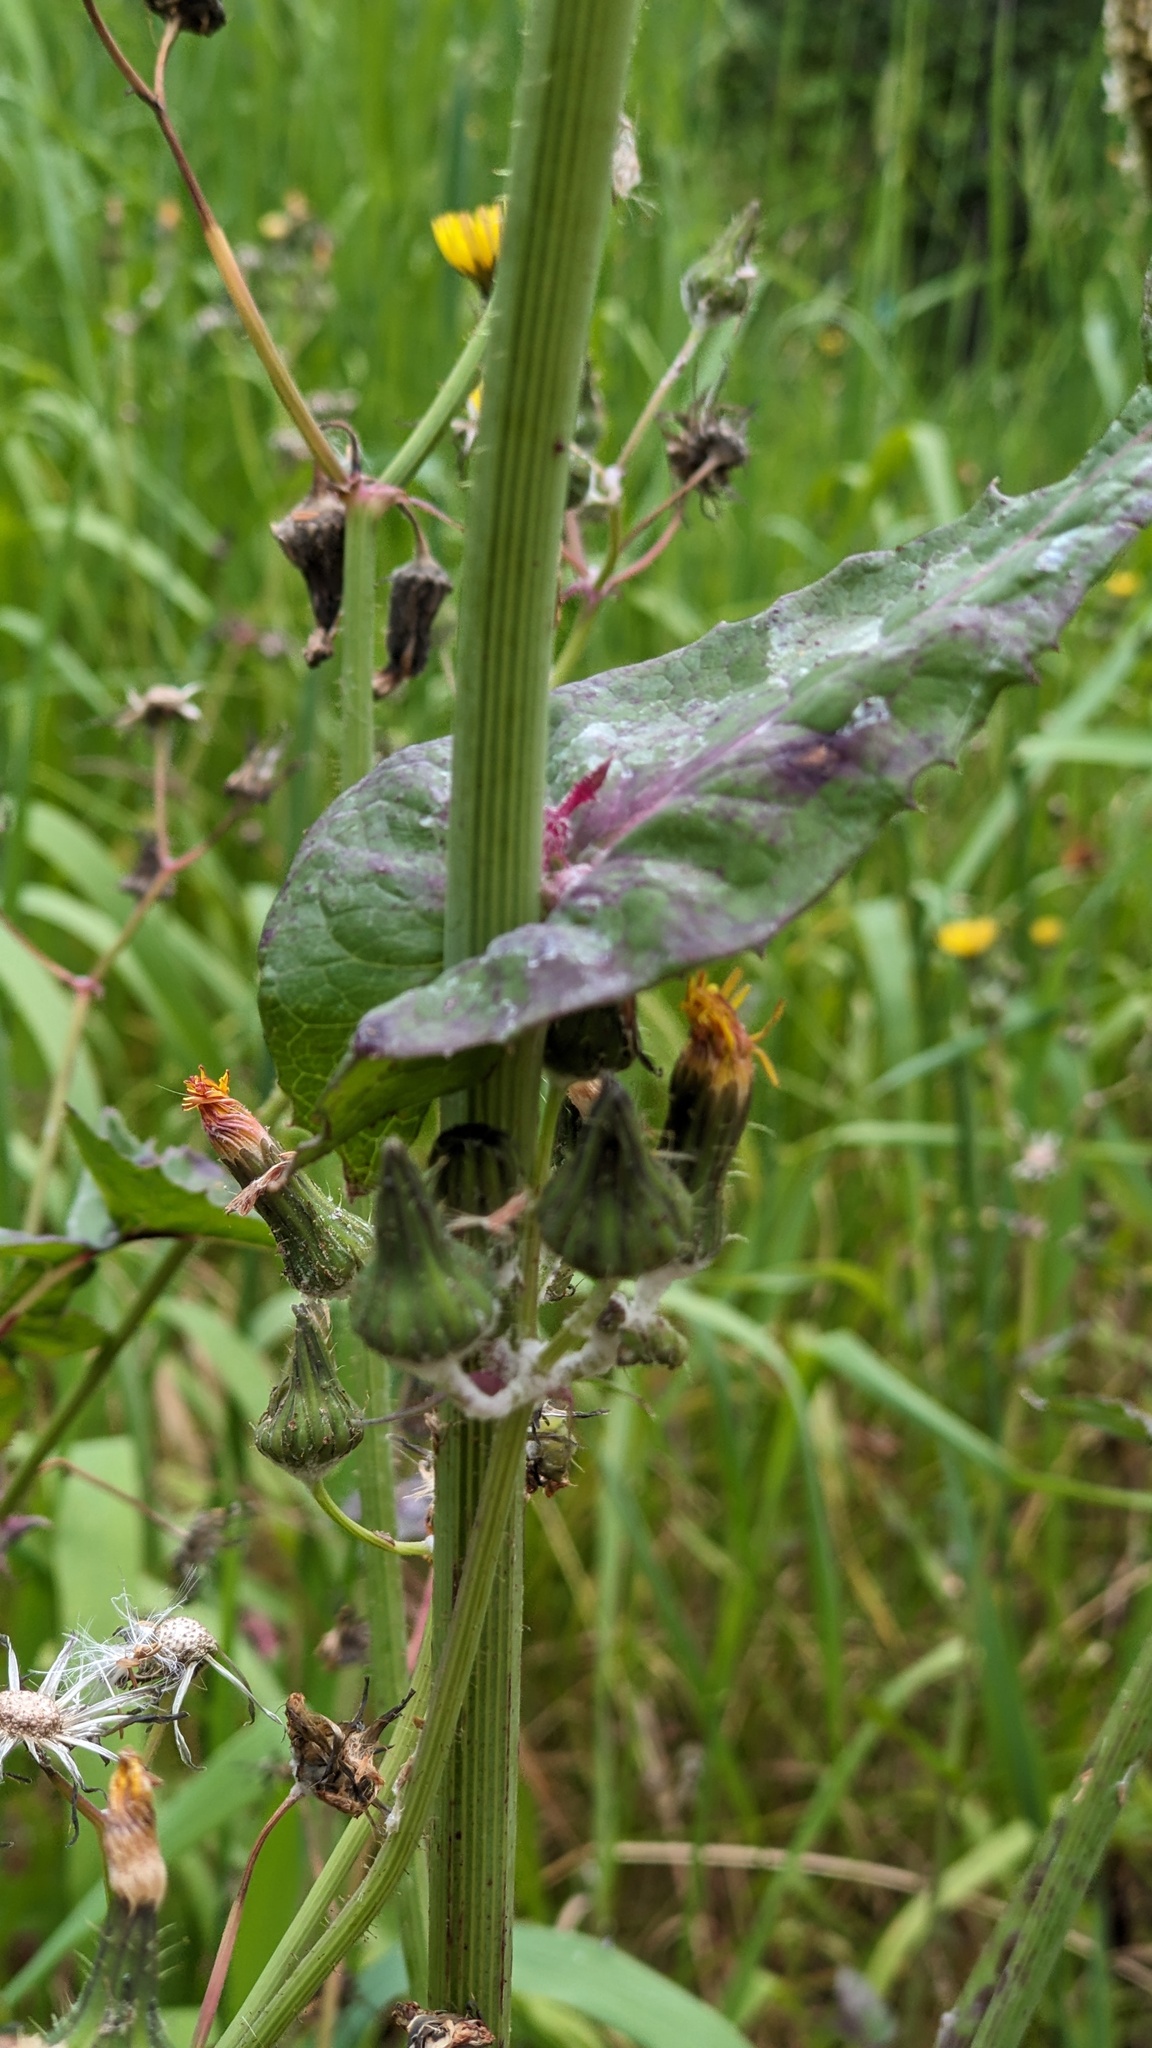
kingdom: Plantae
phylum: Tracheophyta
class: Magnoliopsida
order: Asterales
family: Asteraceae
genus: Sonchus
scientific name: Sonchus oleraceus
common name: Common sowthistle
